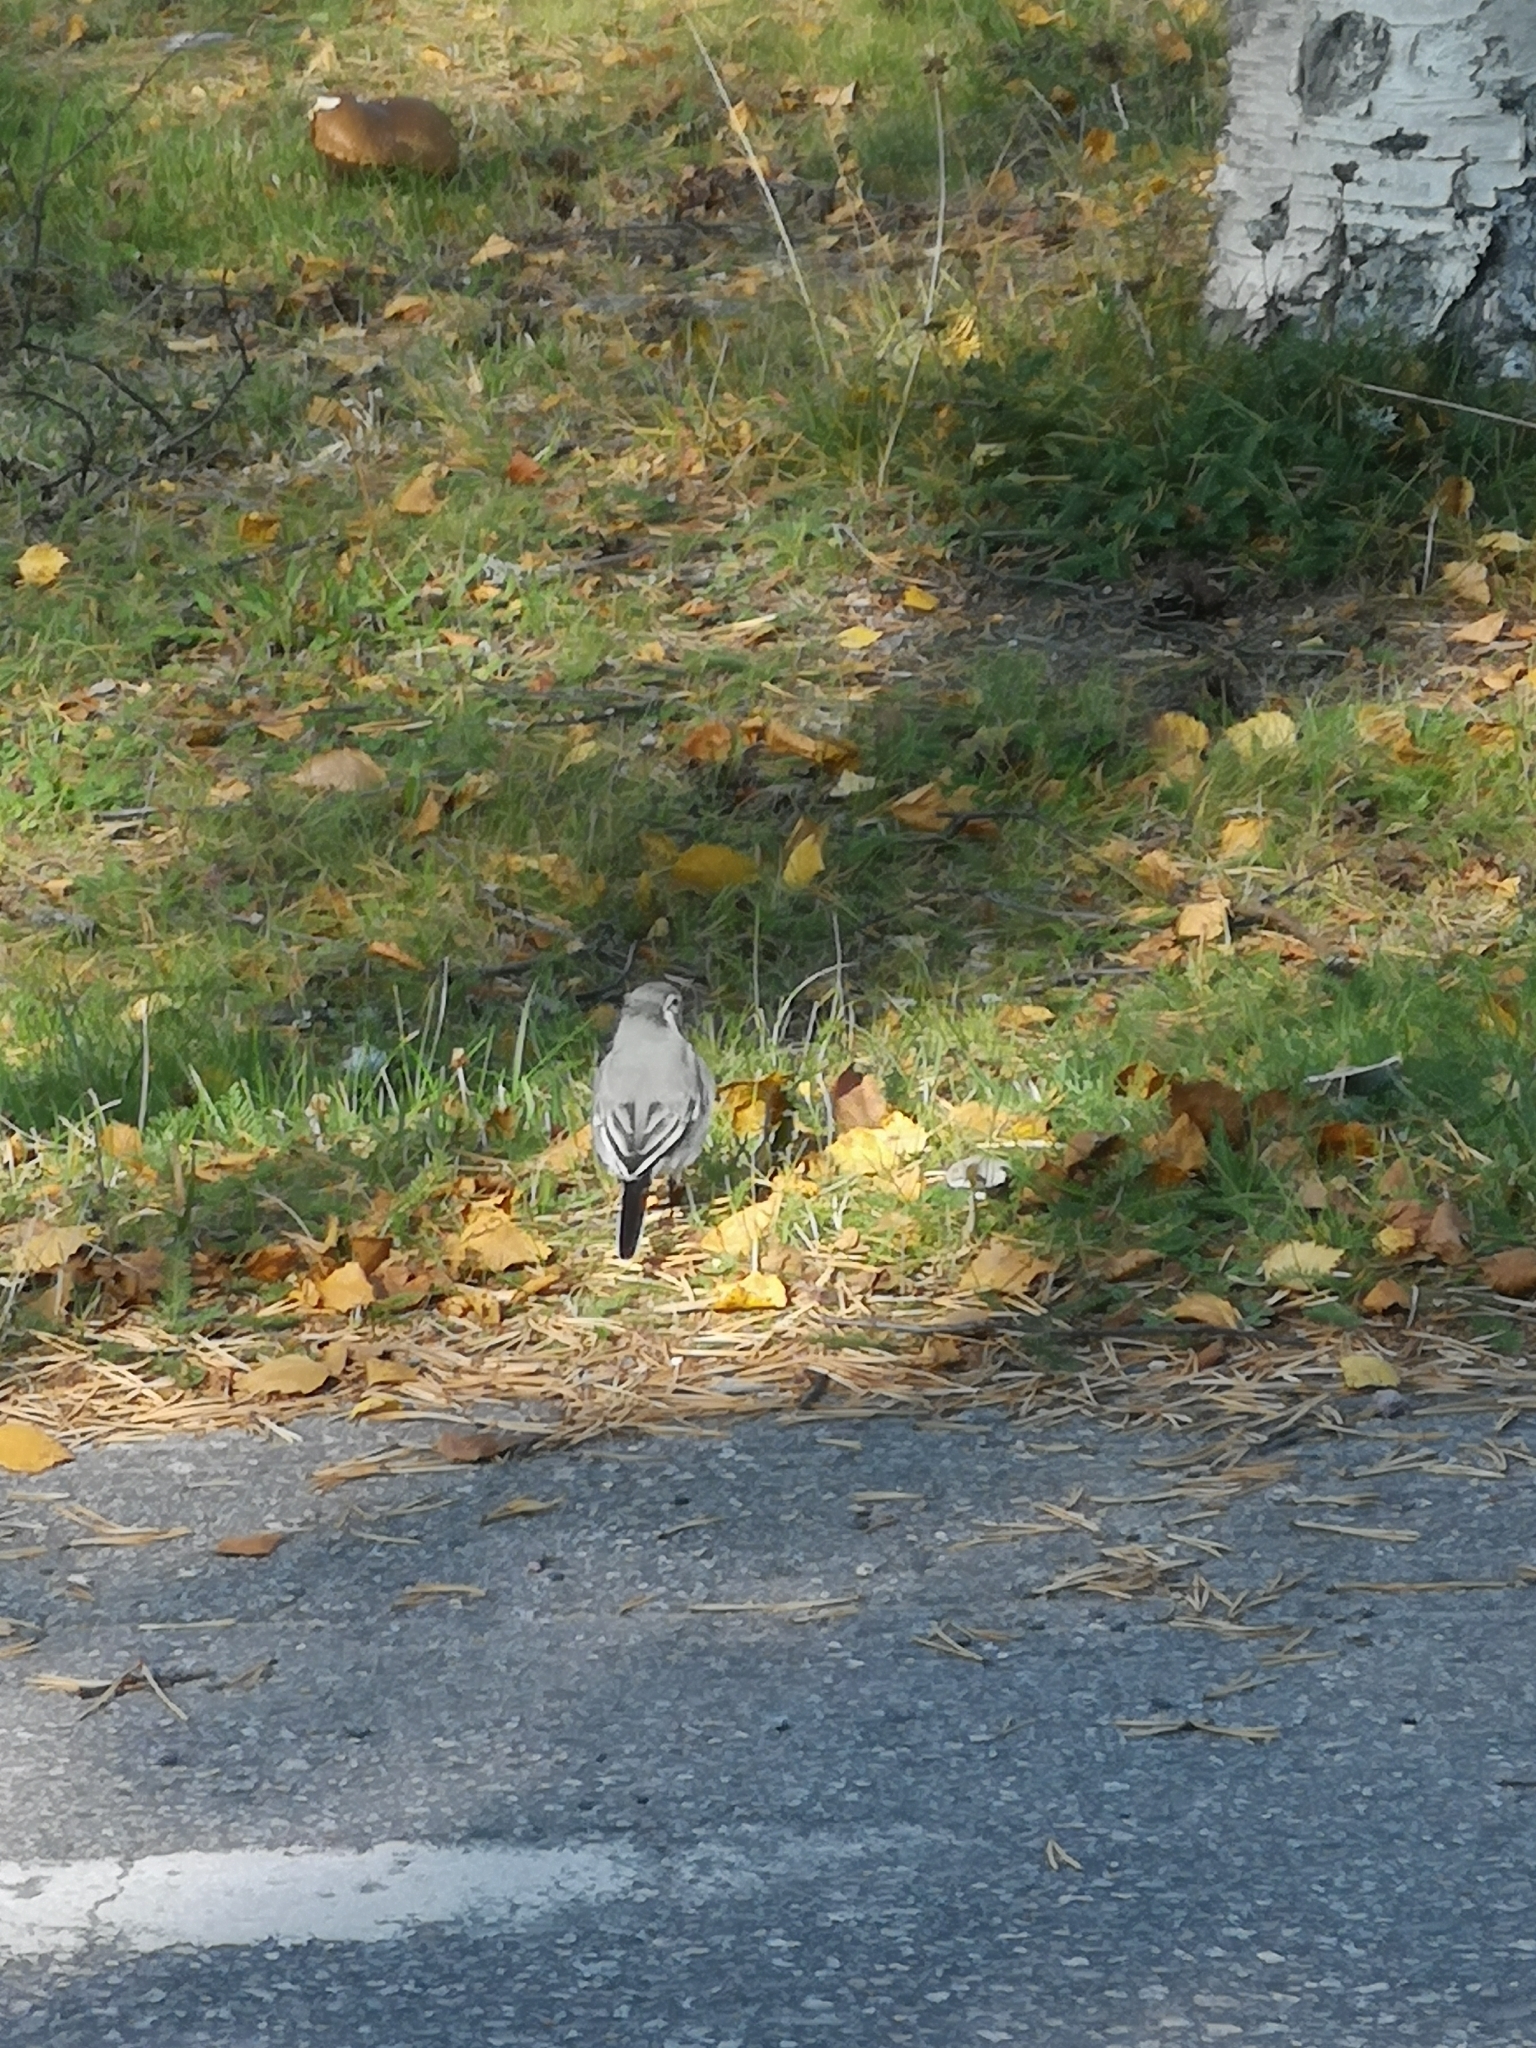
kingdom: Animalia
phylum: Chordata
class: Aves
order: Passeriformes
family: Motacillidae
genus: Motacilla
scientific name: Motacilla alba
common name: White wagtail
